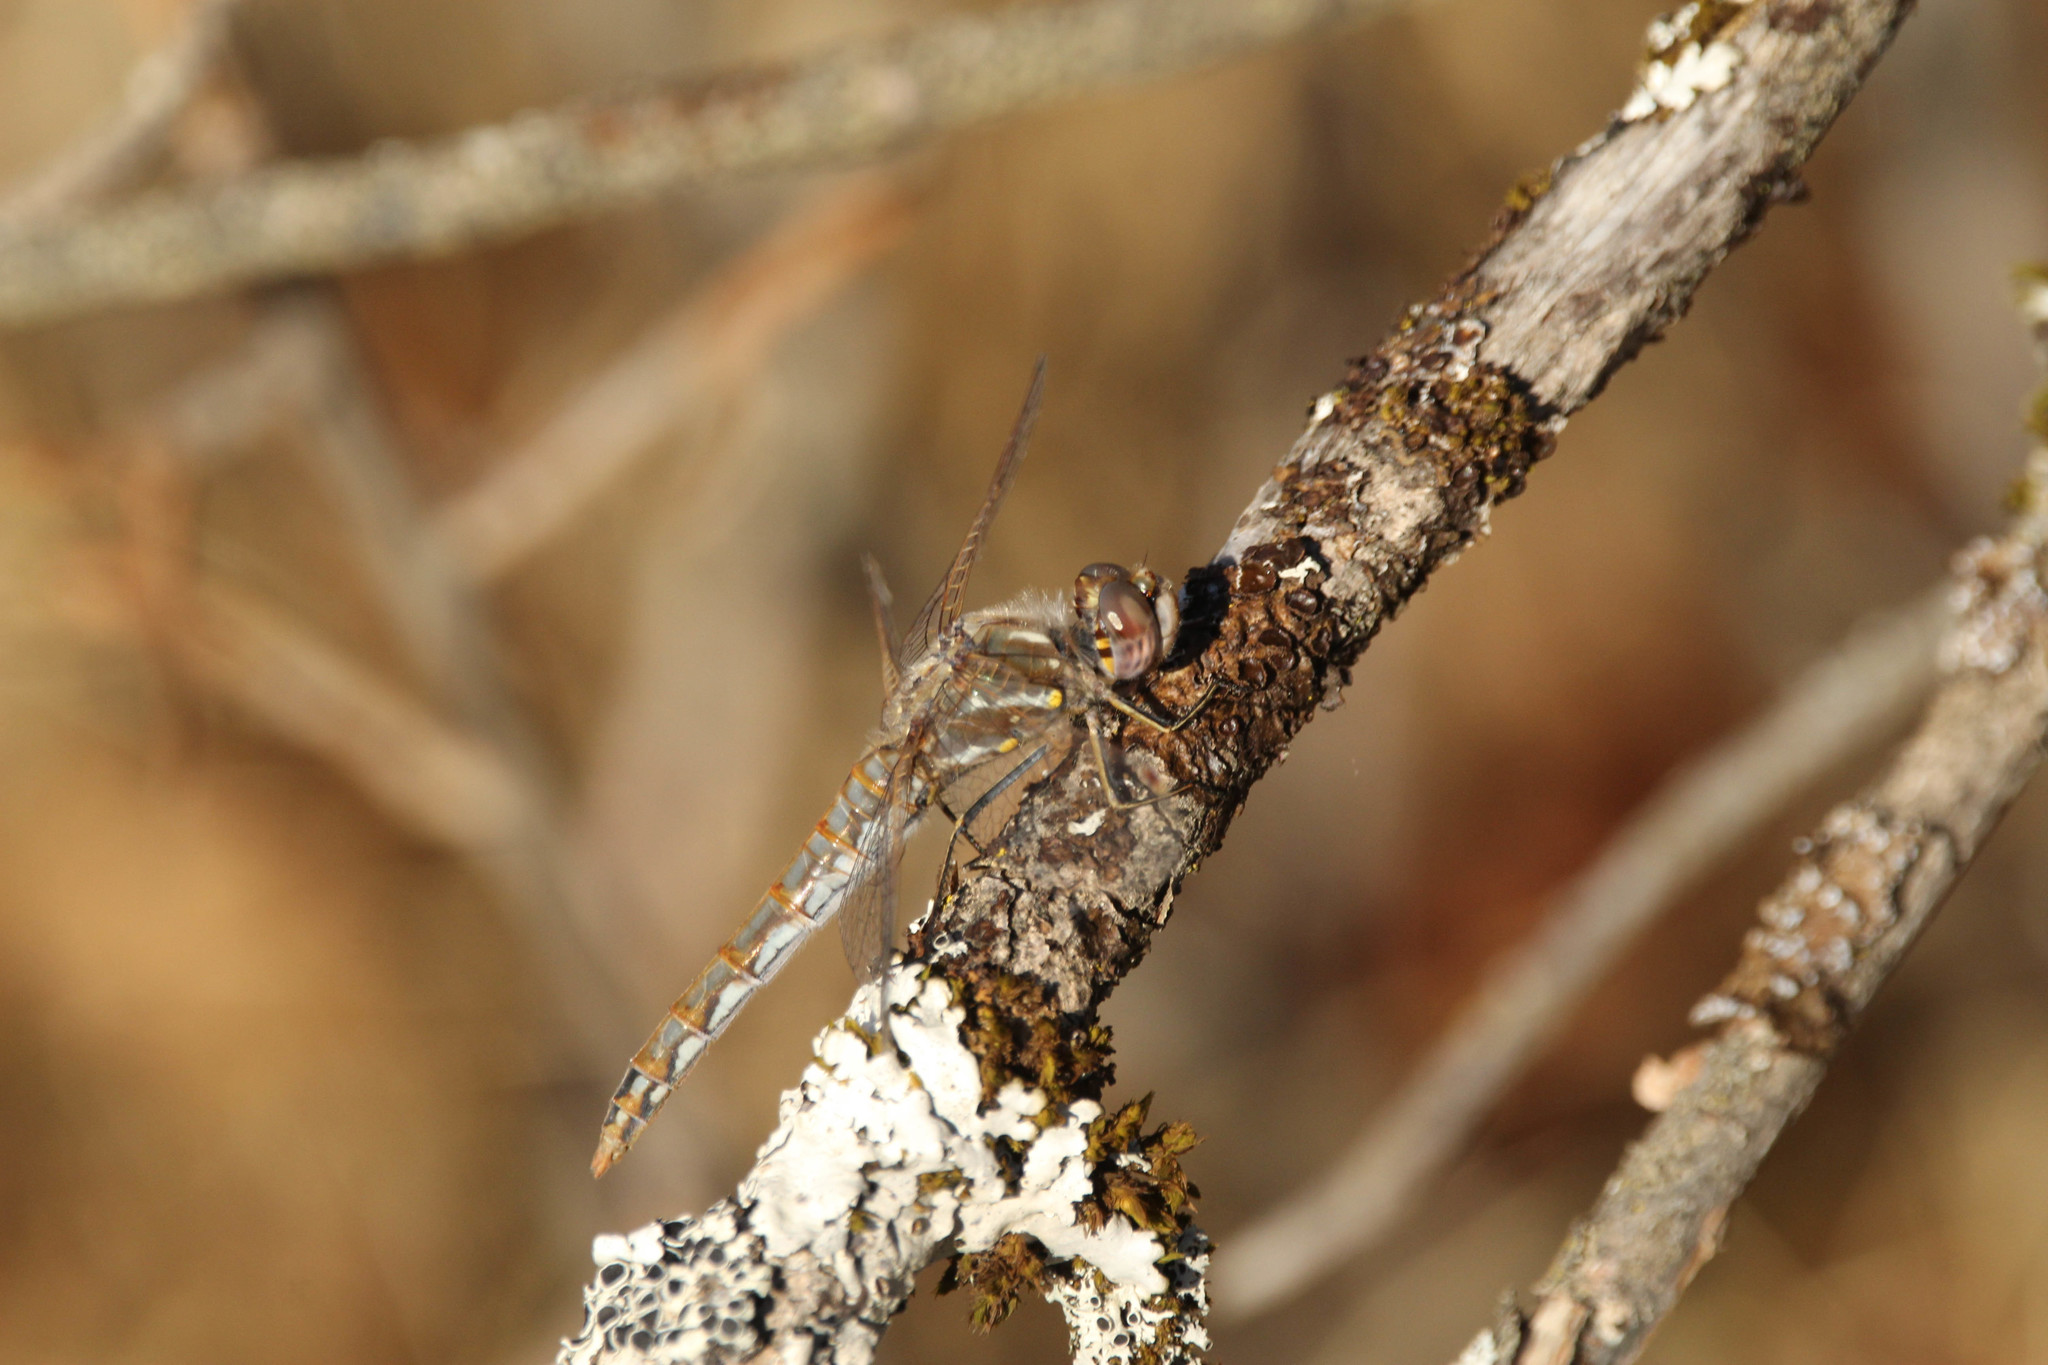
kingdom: Animalia
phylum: Arthropoda
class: Insecta
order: Odonata
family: Libellulidae
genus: Sympetrum
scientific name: Sympetrum corruptum
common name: Variegated meadowhawk
